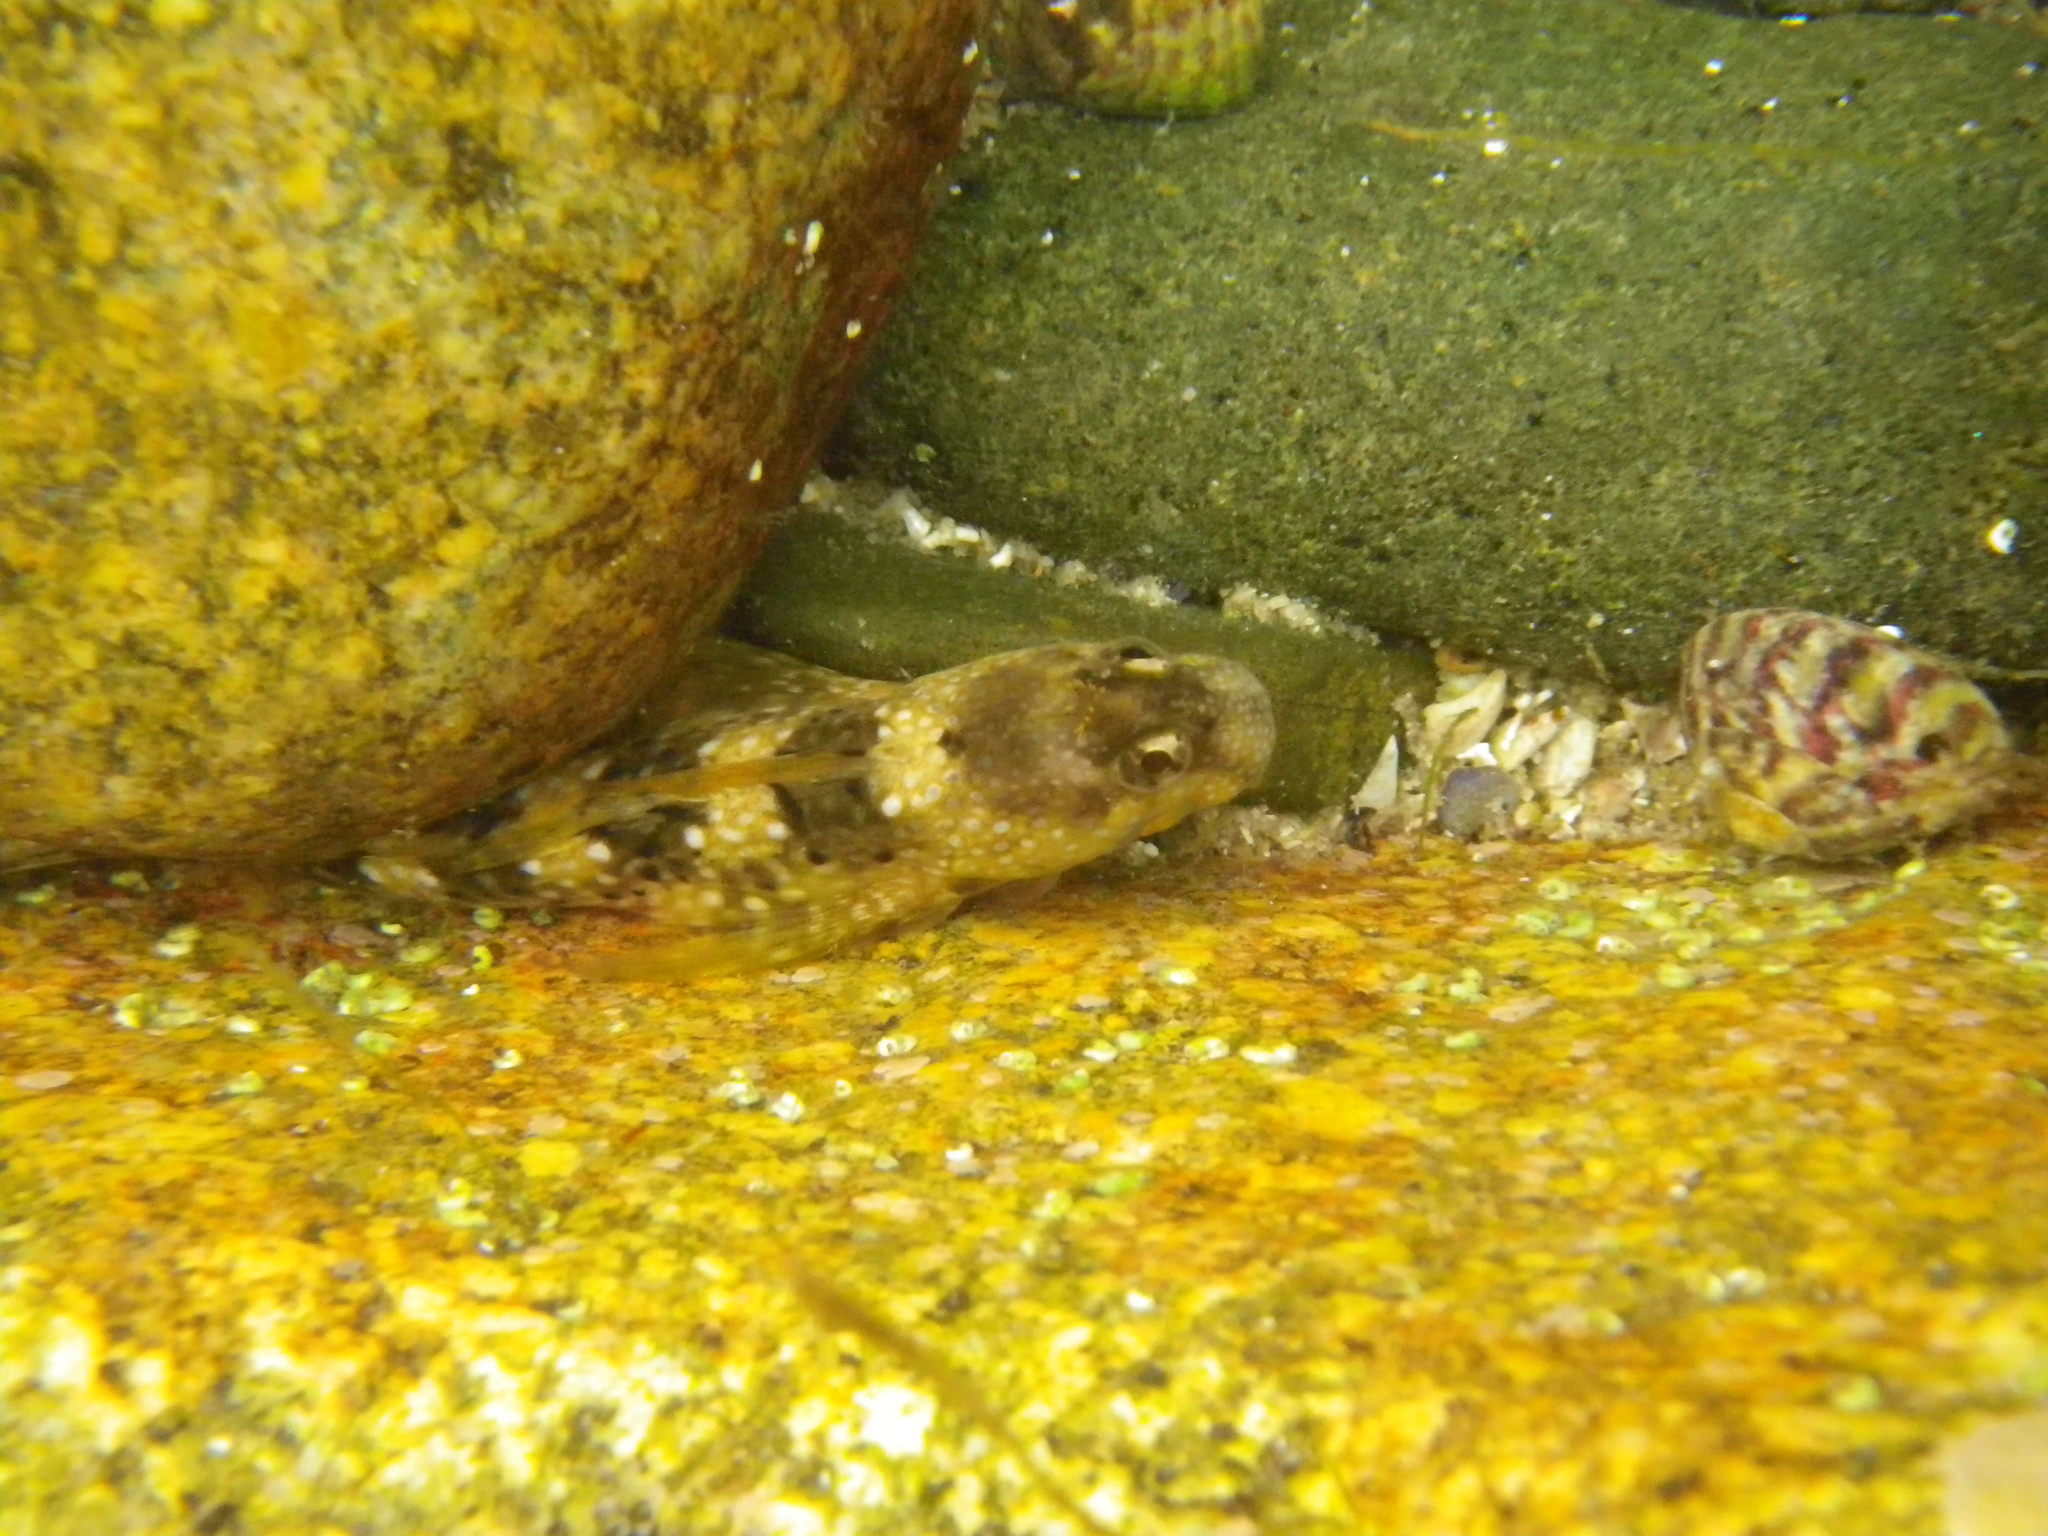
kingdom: Animalia
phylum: Chordata
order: Perciformes
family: Blenniidae
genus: Coryphoblennius
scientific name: Coryphoblennius galerita
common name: Montagu's blenny
